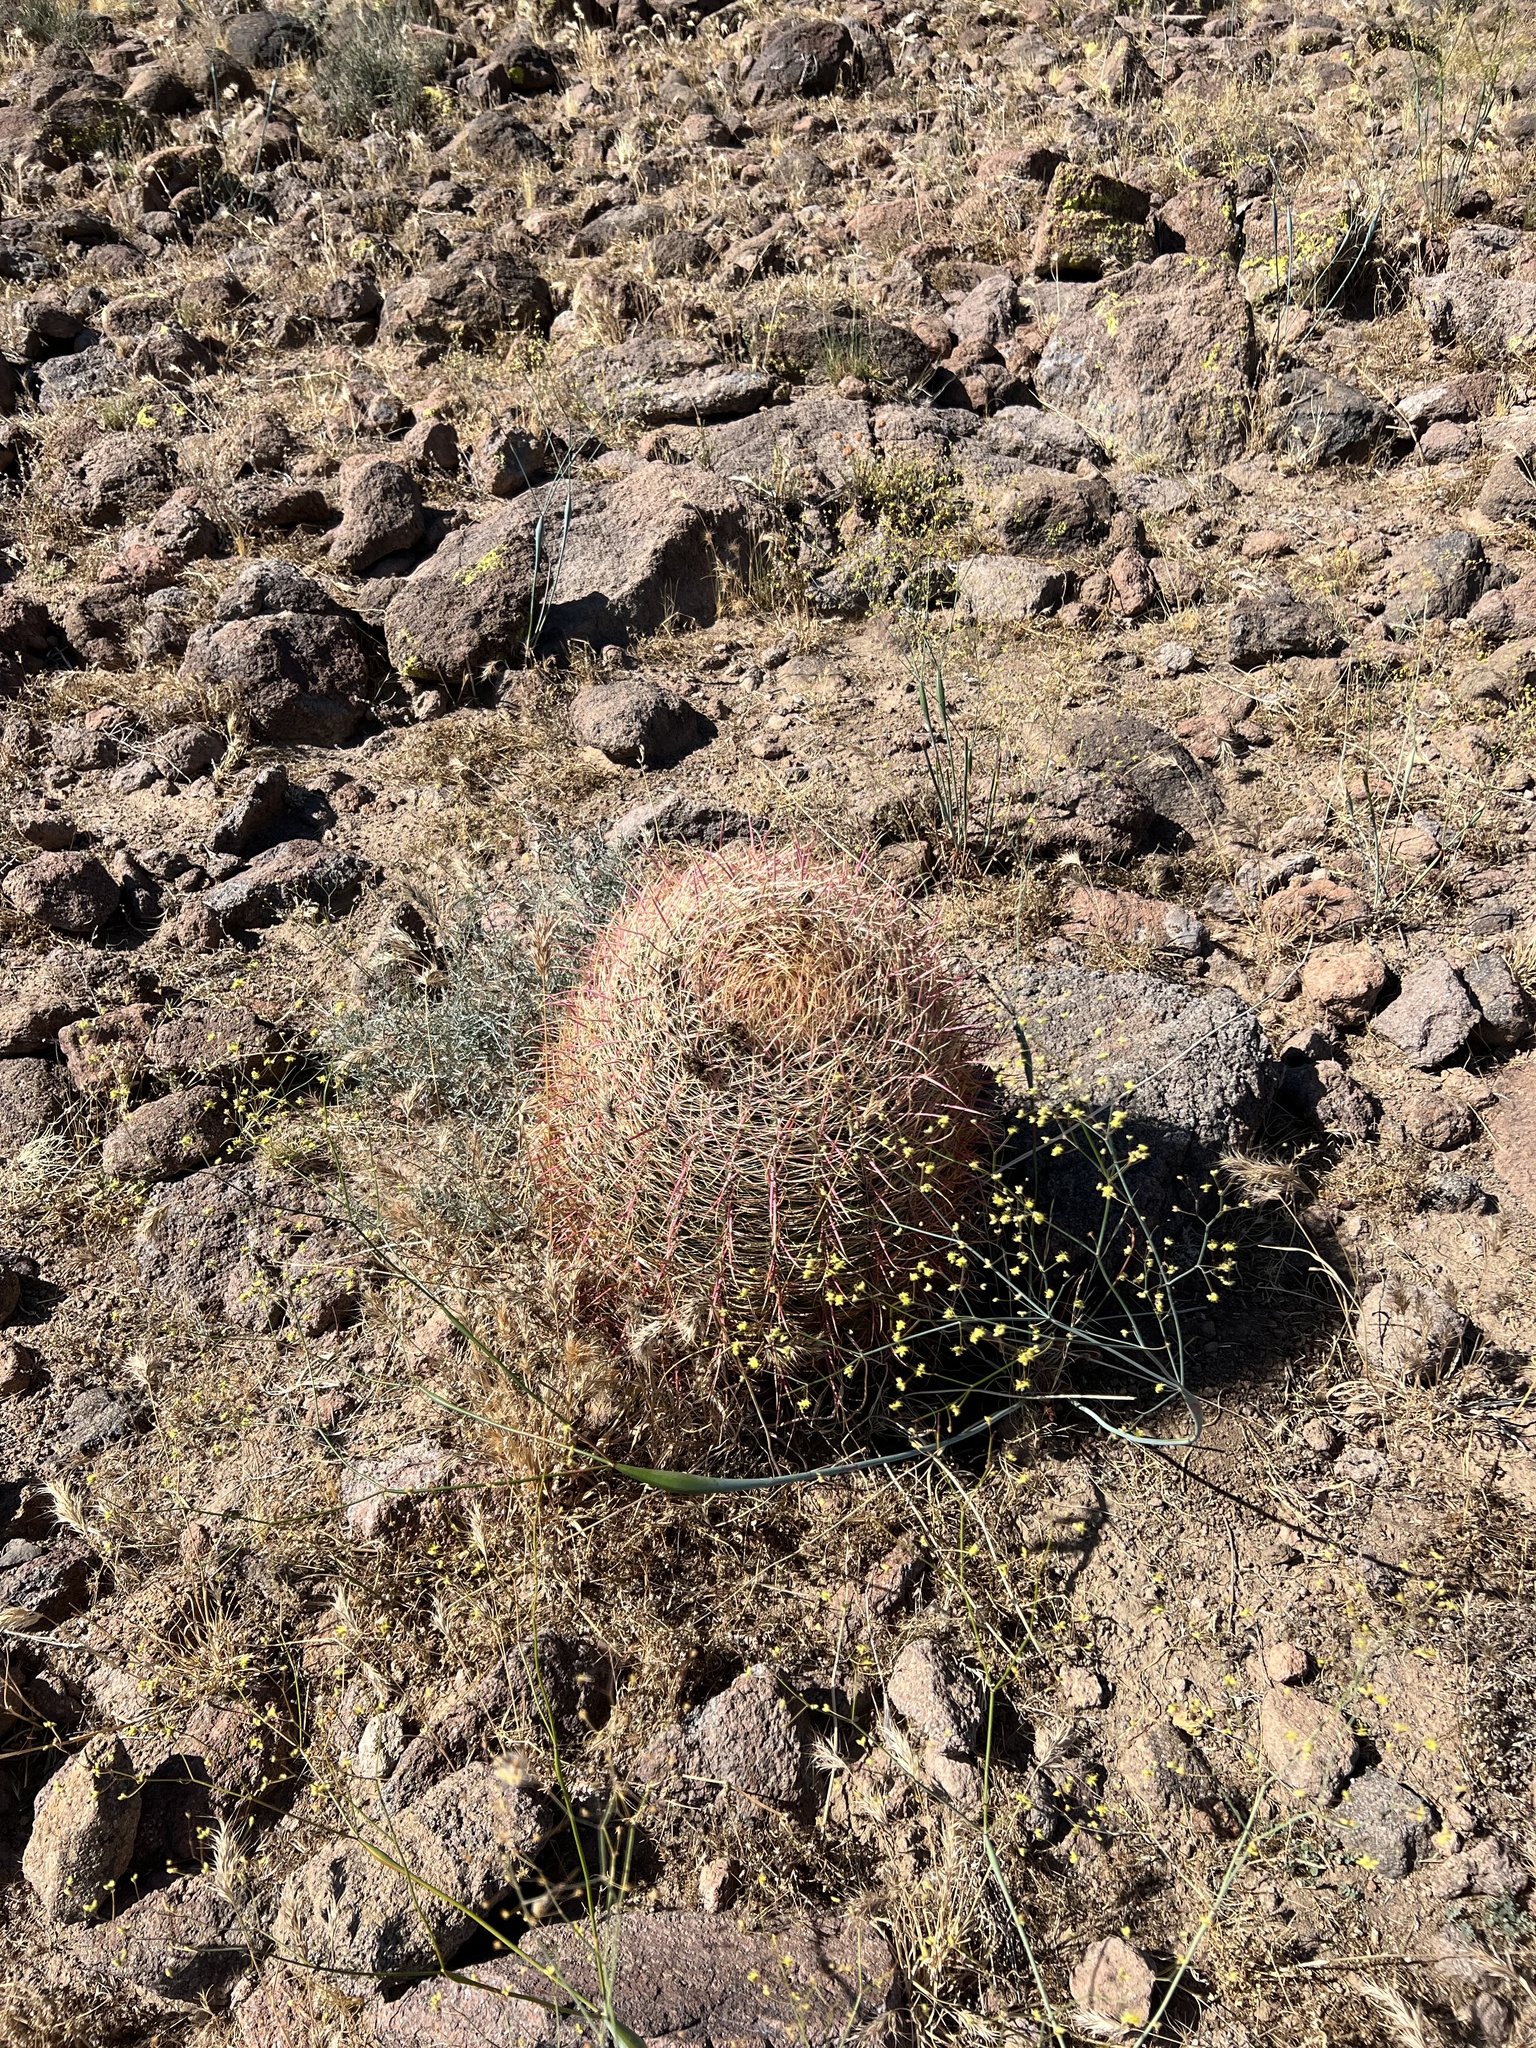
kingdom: Plantae
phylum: Tracheophyta
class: Magnoliopsida
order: Caryophyllales
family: Cactaceae
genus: Ferocactus
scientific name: Ferocactus cylindraceus
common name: California barrel cactus
